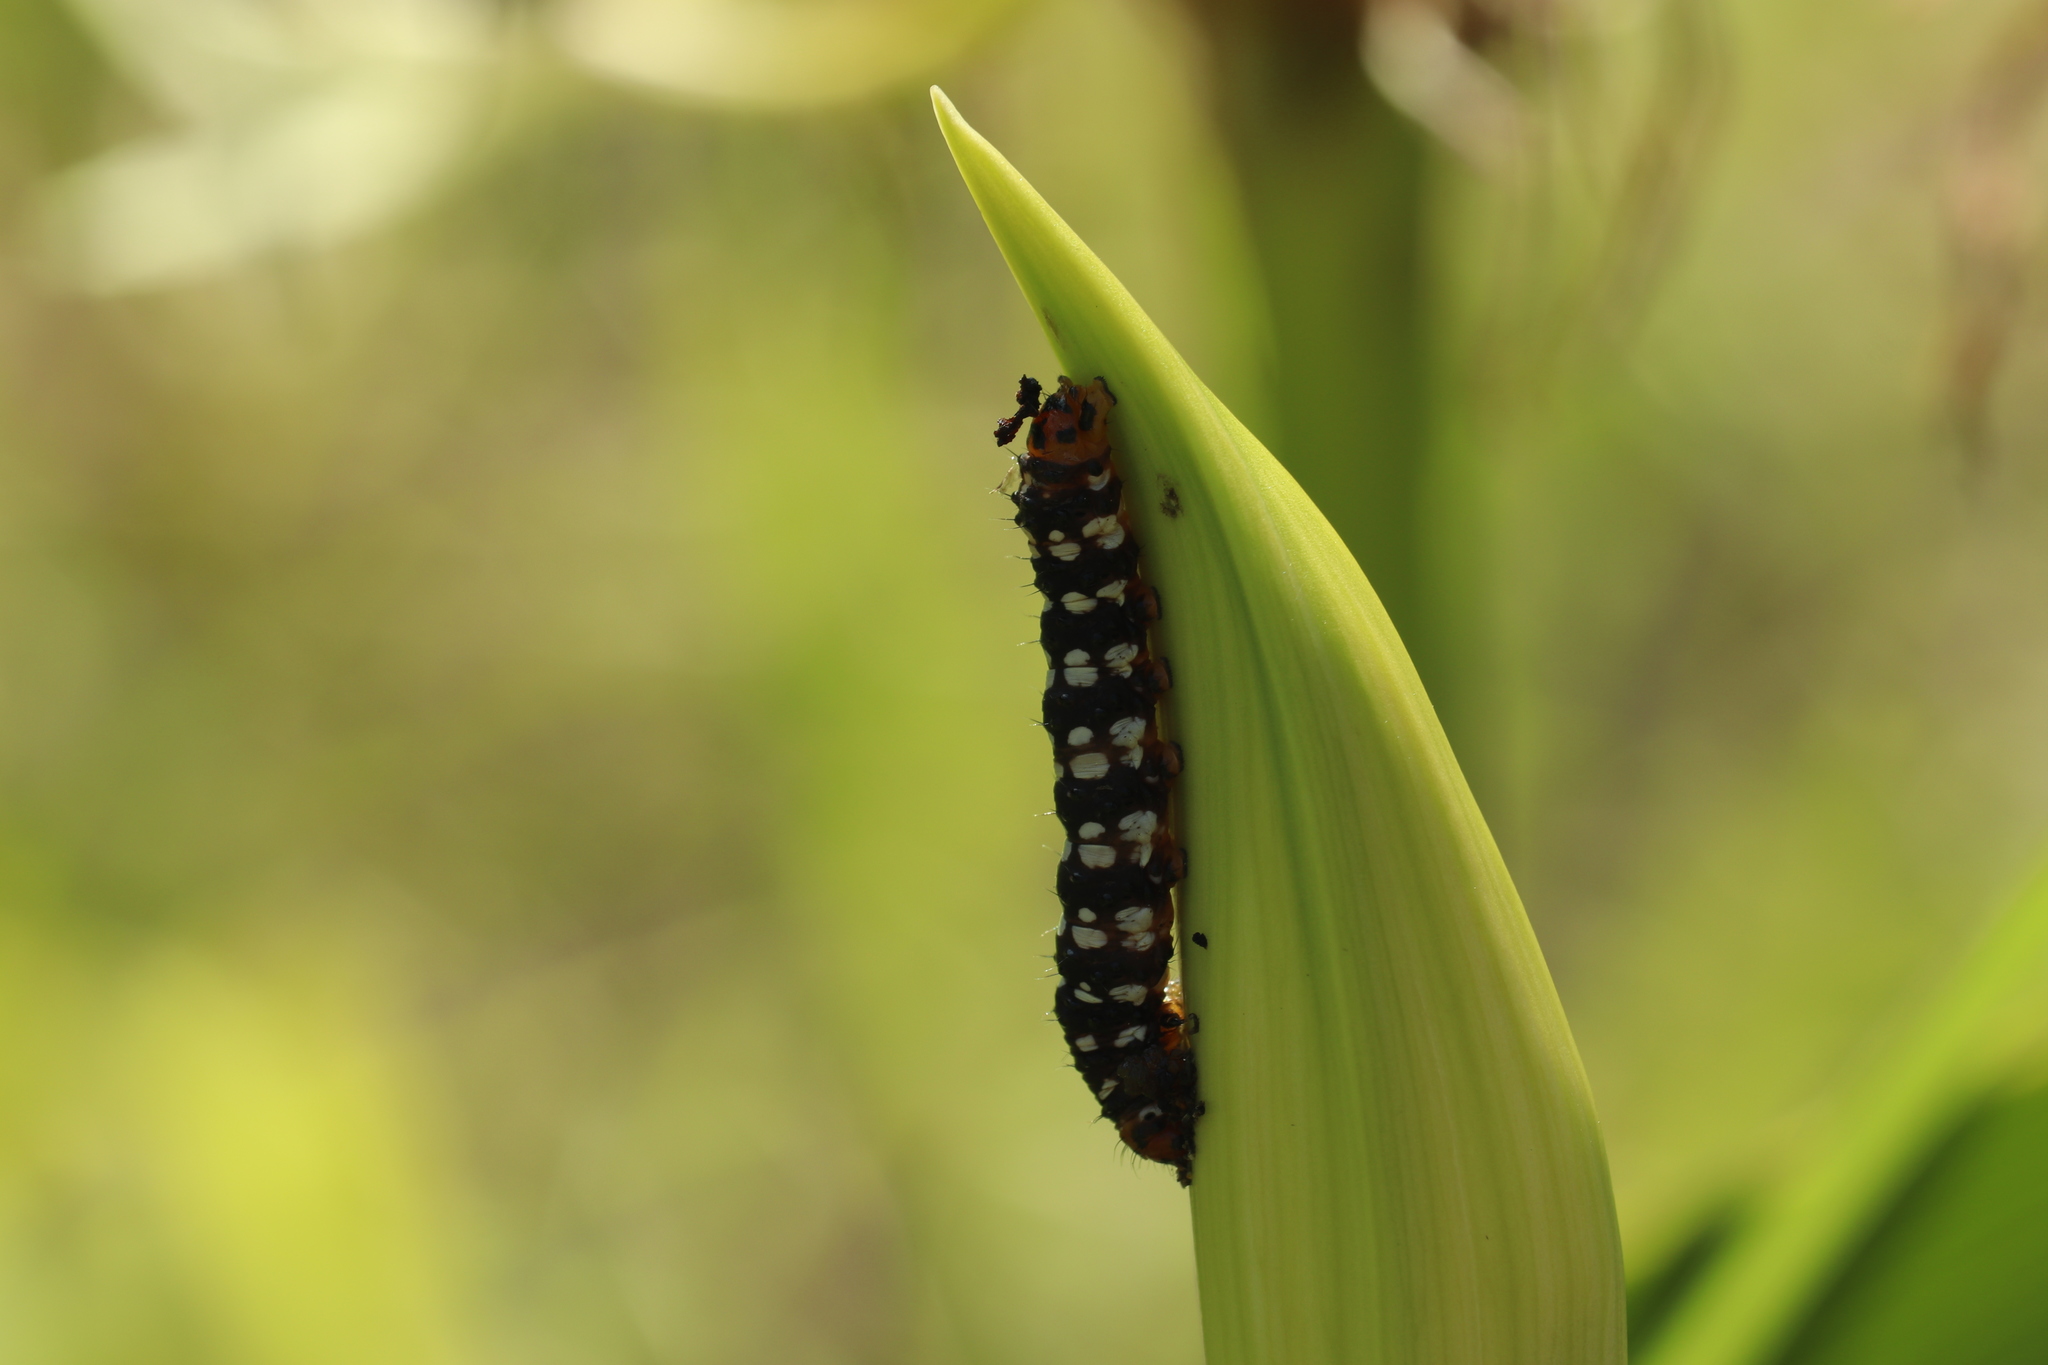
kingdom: Animalia
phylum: Arthropoda
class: Insecta
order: Lepidoptera
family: Noctuidae
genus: Brithys
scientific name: Brithys crini
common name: Kew arches
